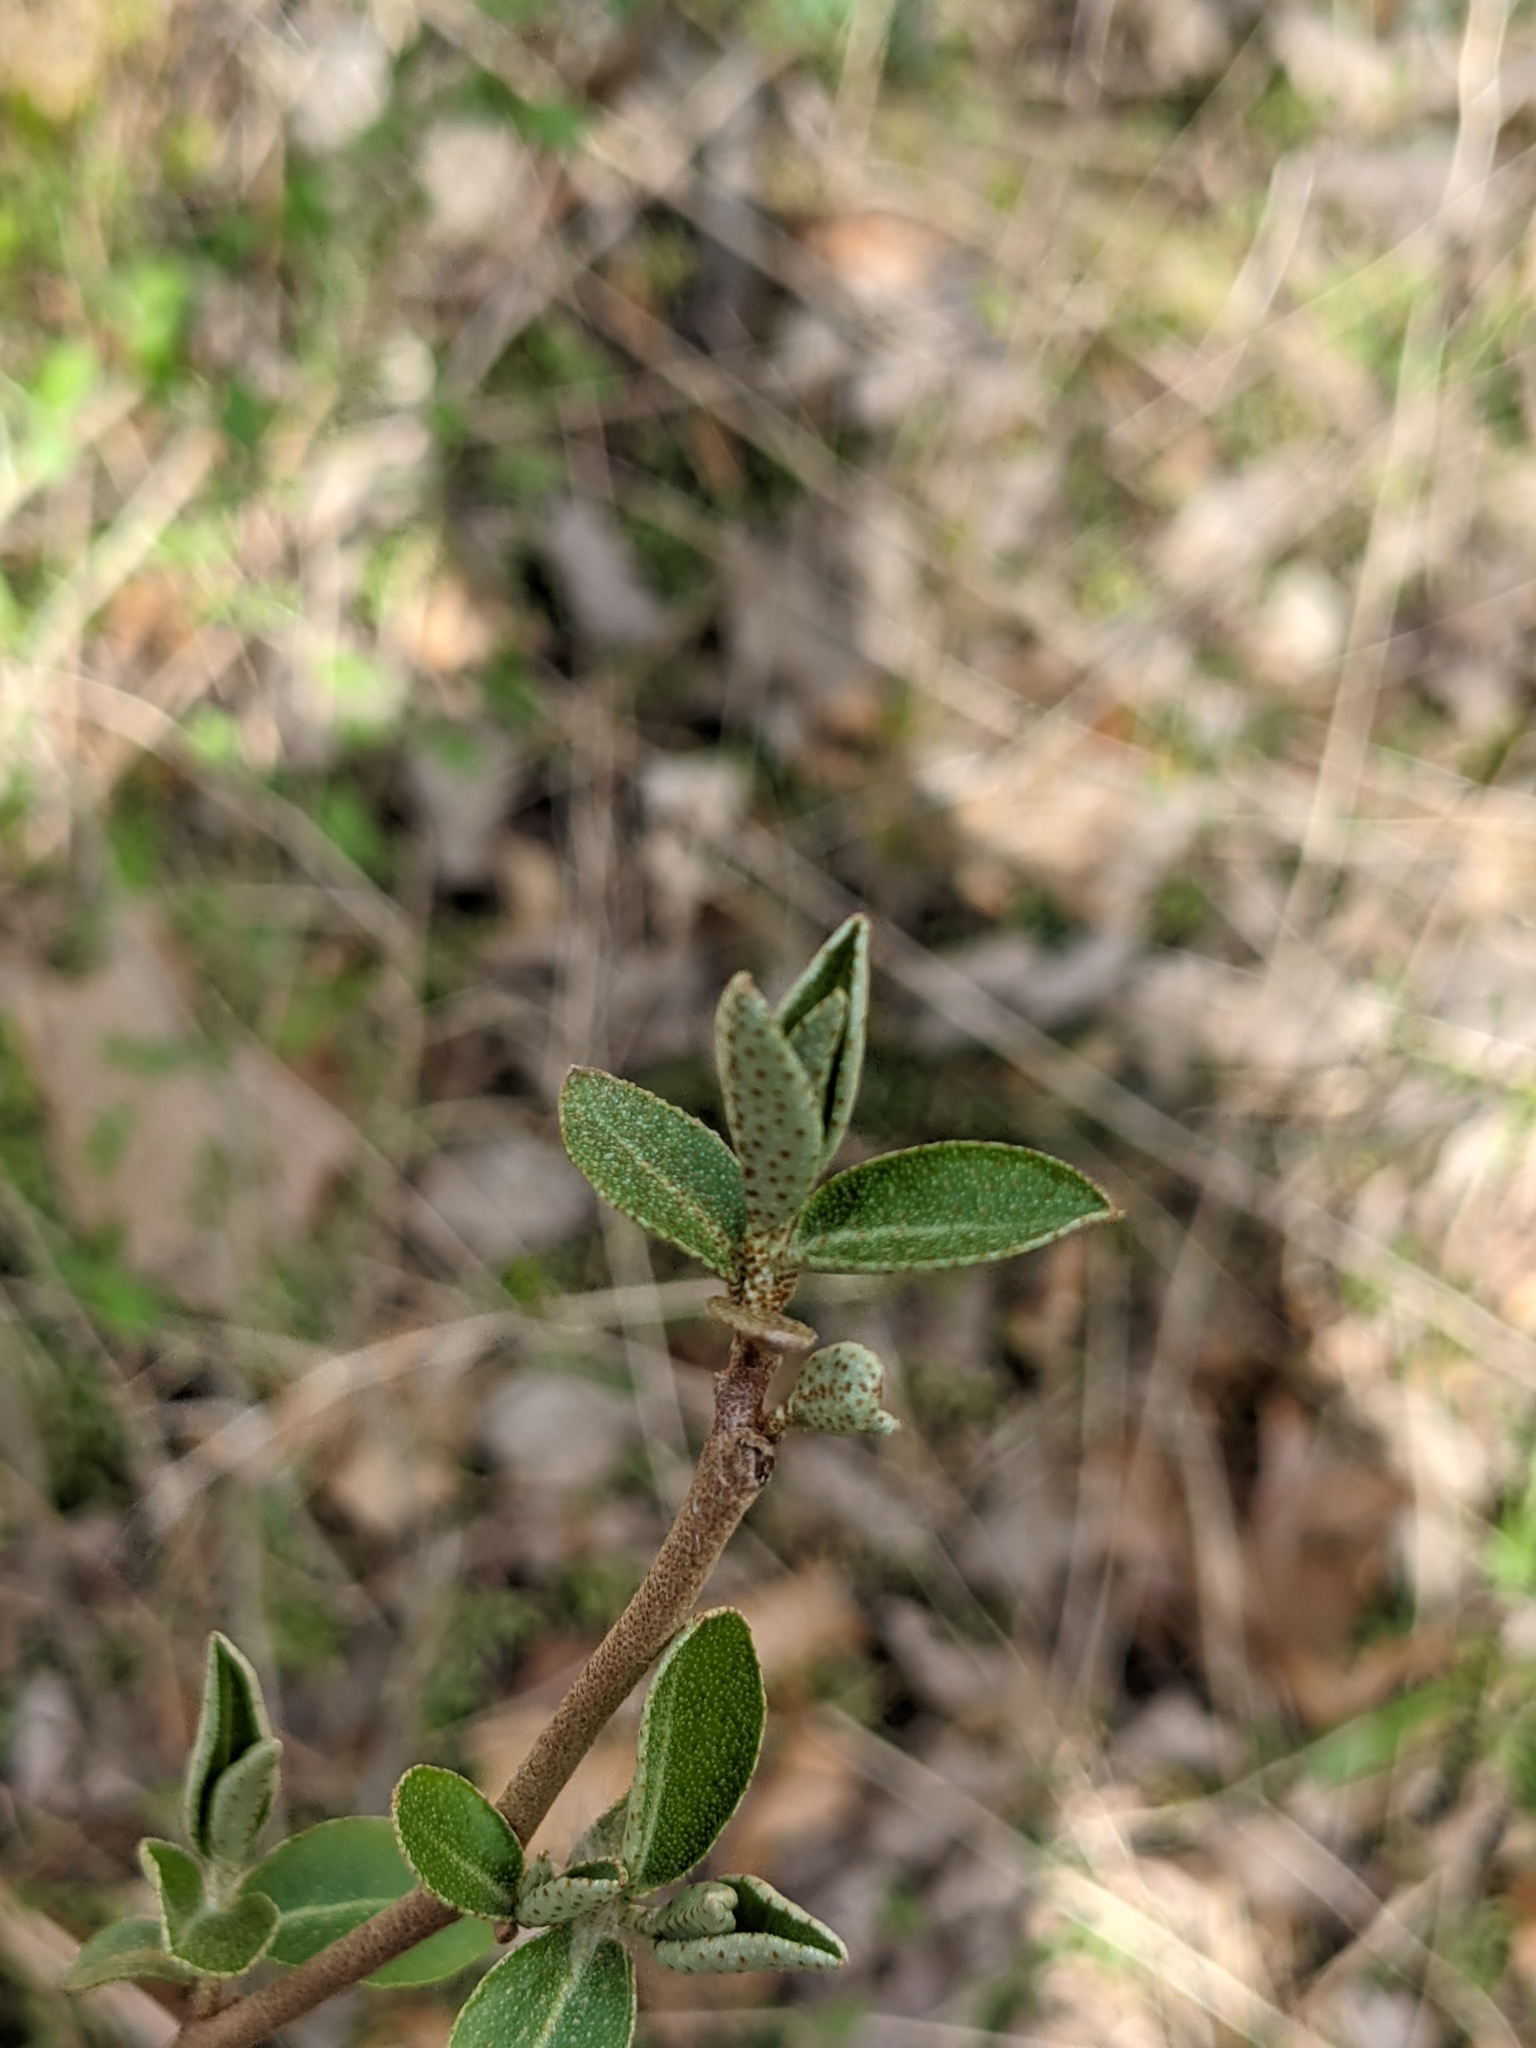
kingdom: Plantae
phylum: Tracheophyta
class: Magnoliopsida
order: Rosales
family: Elaeagnaceae
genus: Elaeagnus
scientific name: Elaeagnus umbellata
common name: Autumn olive
